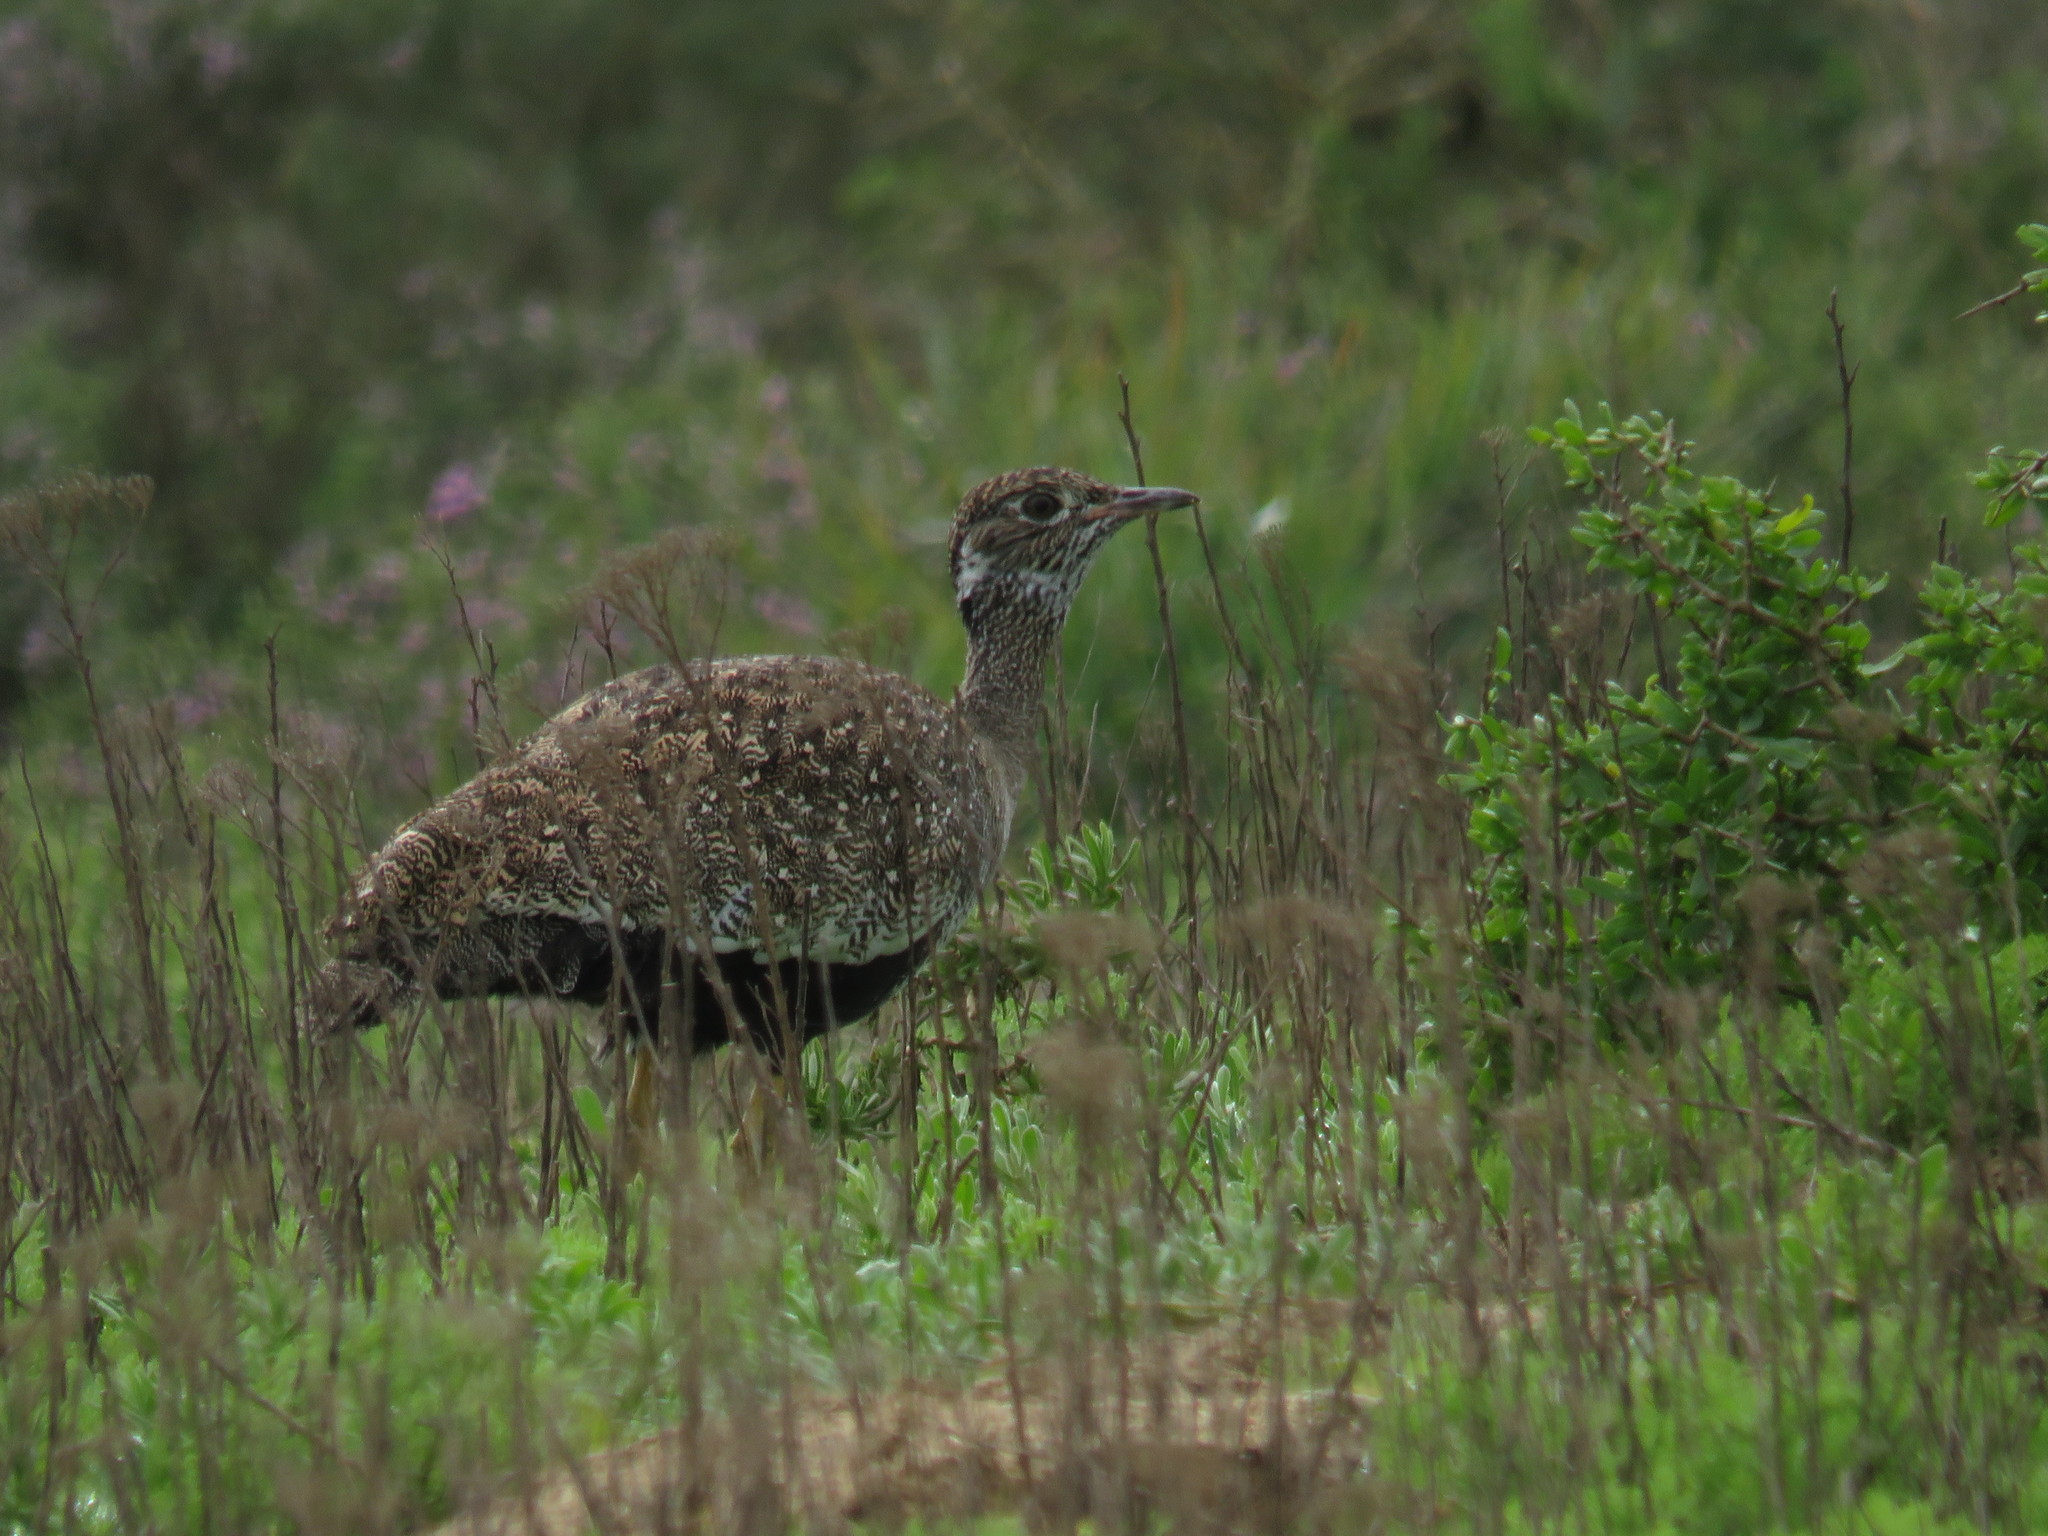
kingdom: Animalia
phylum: Chordata
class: Aves
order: Otidiformes
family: Otididae
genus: Afrotis
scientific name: Afrotis afra
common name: Southern black korhaan
